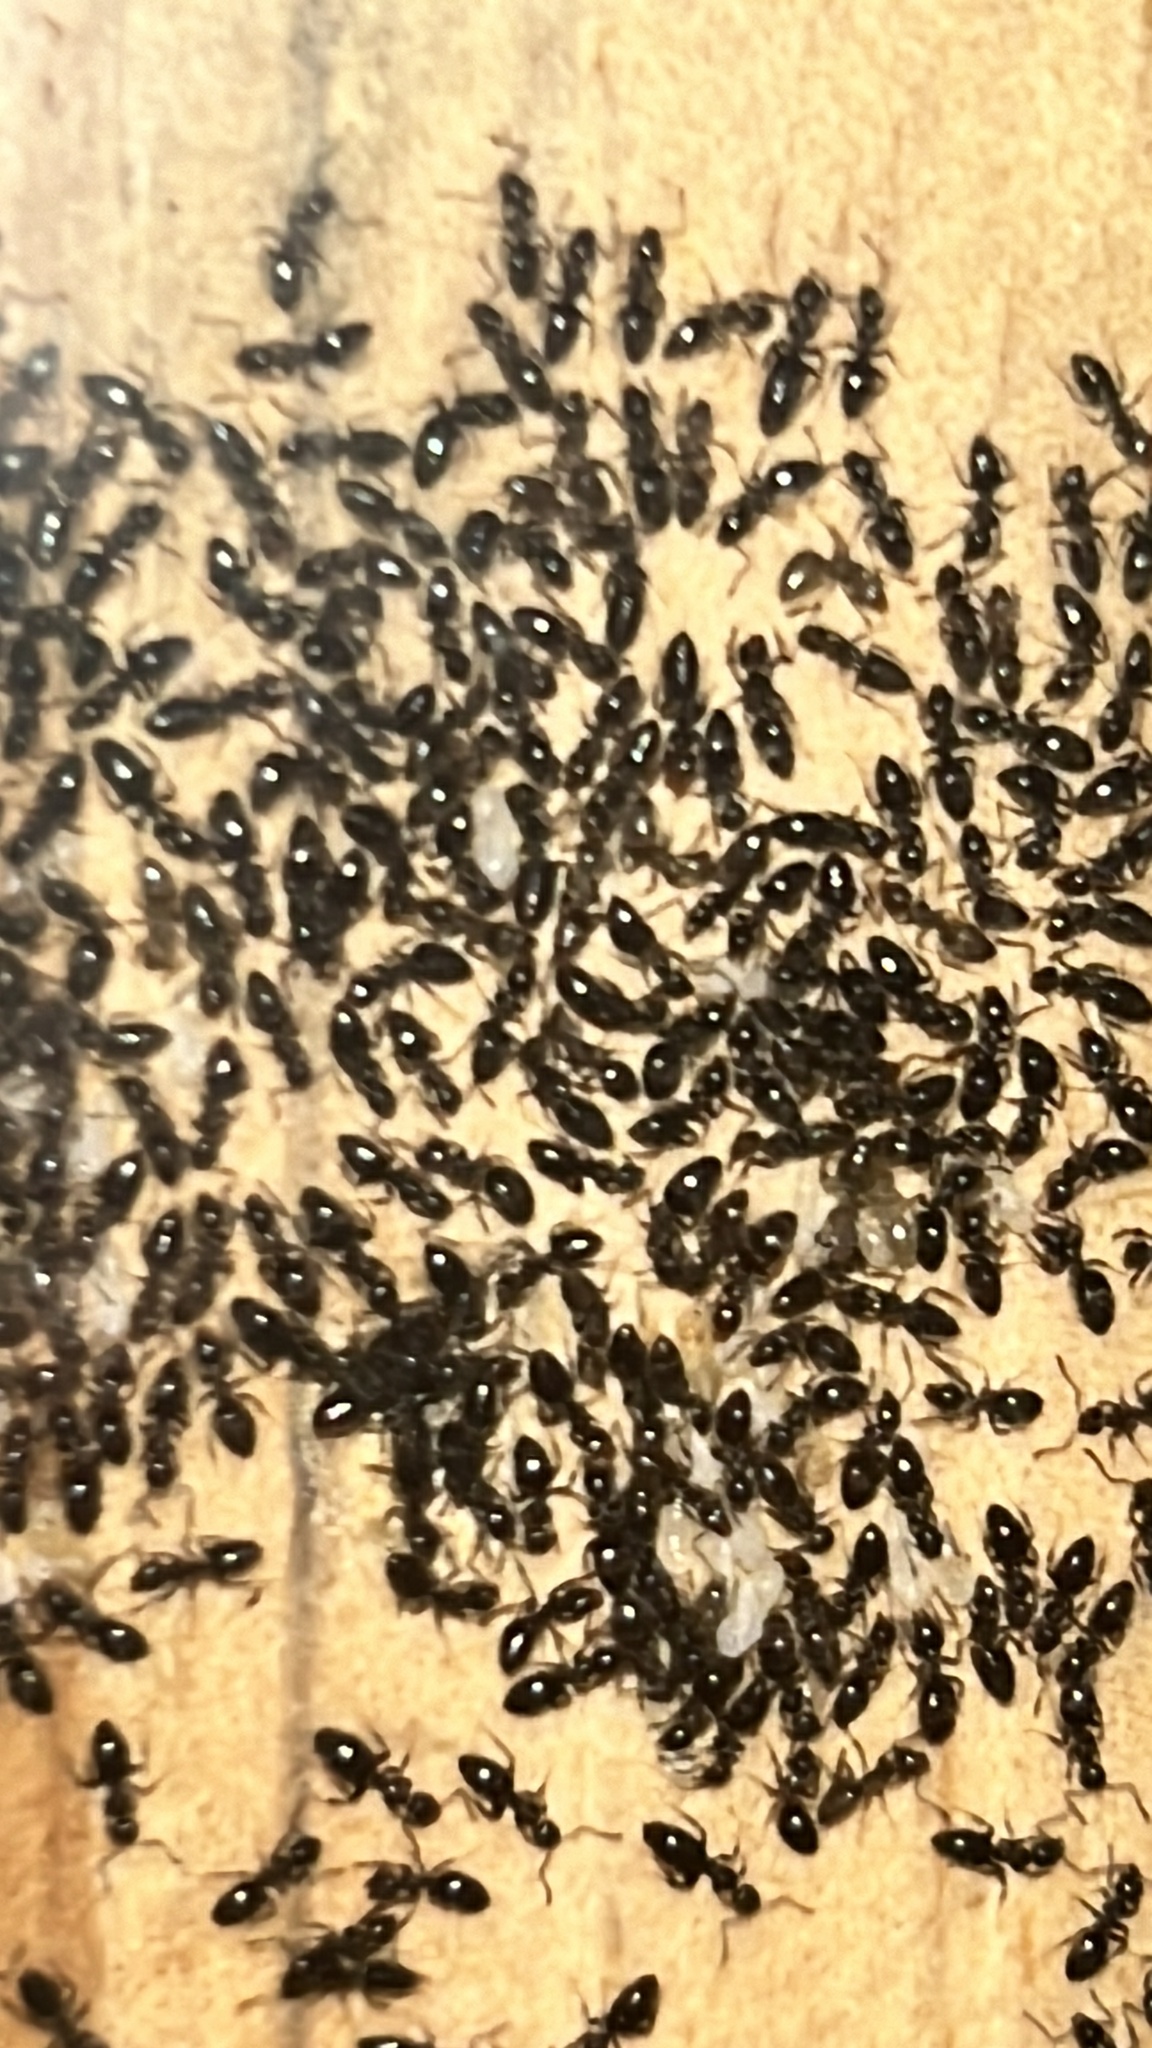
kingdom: Animalia
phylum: Arthropoda
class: Insecta
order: Hymenoptera
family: Formicidae
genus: Technomyrmex
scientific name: Technomyrmex jocosus
